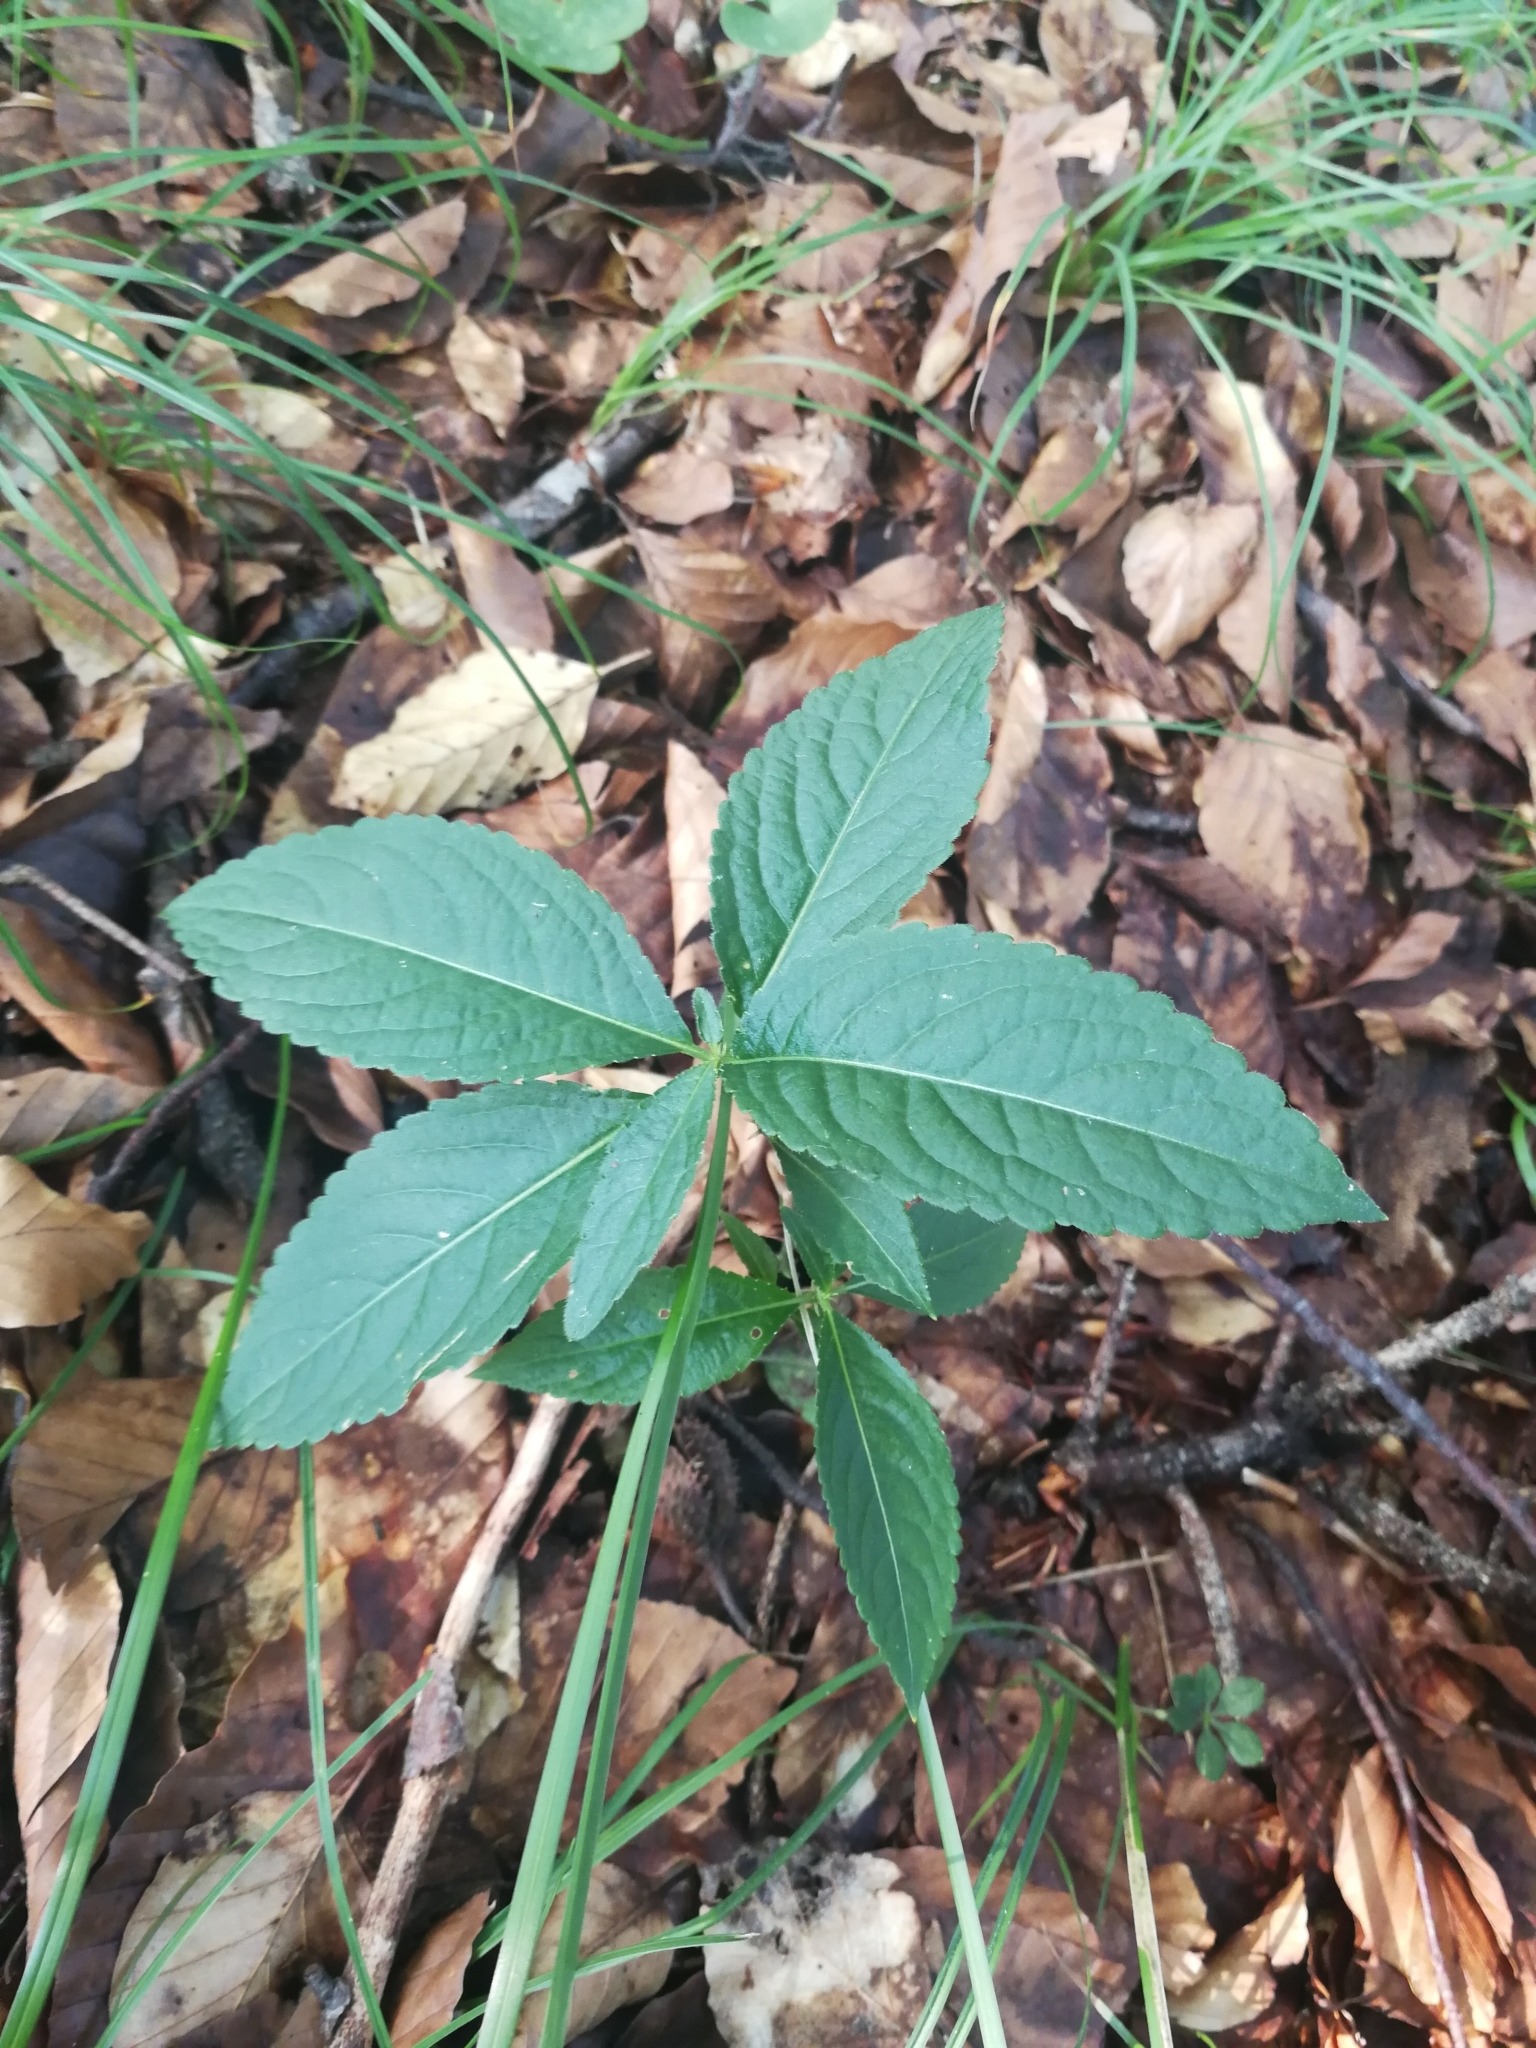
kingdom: Plantae
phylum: Tracheophyta
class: Magnoliopsida
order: Malpighiales
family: Euphorbiaceae
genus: Mercurialis
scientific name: Mercurialis perennis
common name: Dog mercury
